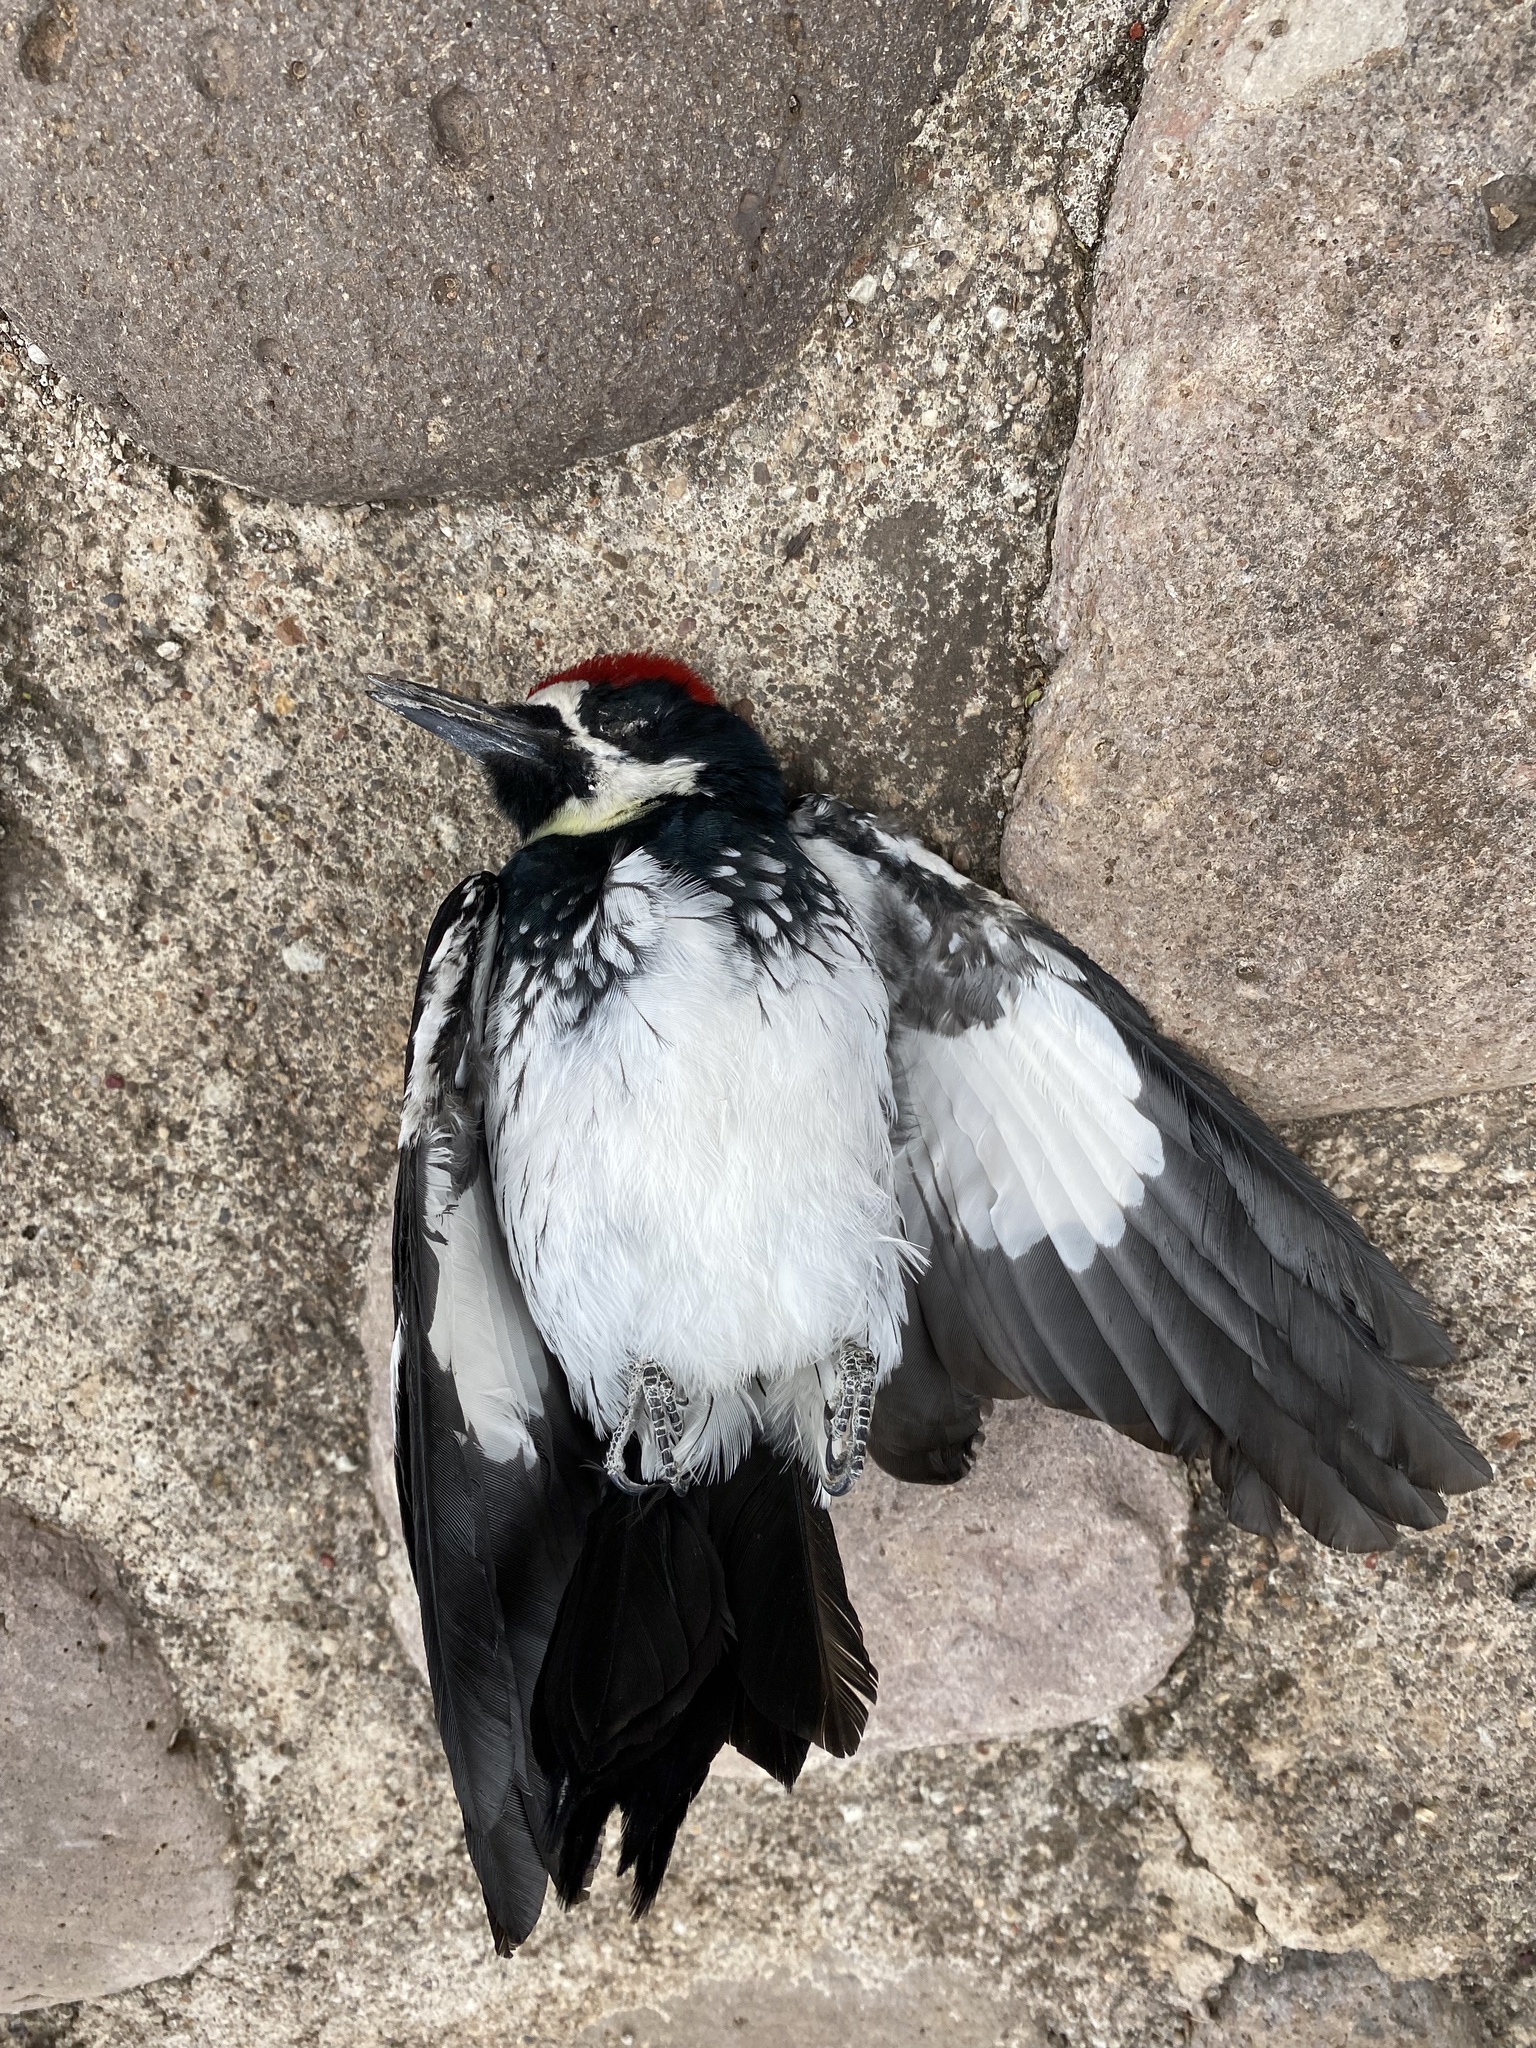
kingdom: Animalia
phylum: Chordata
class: Aves
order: Piciformes
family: Picidae
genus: Melanerpes
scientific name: Melanerpes formicivorus
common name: Acorn woodpecker
